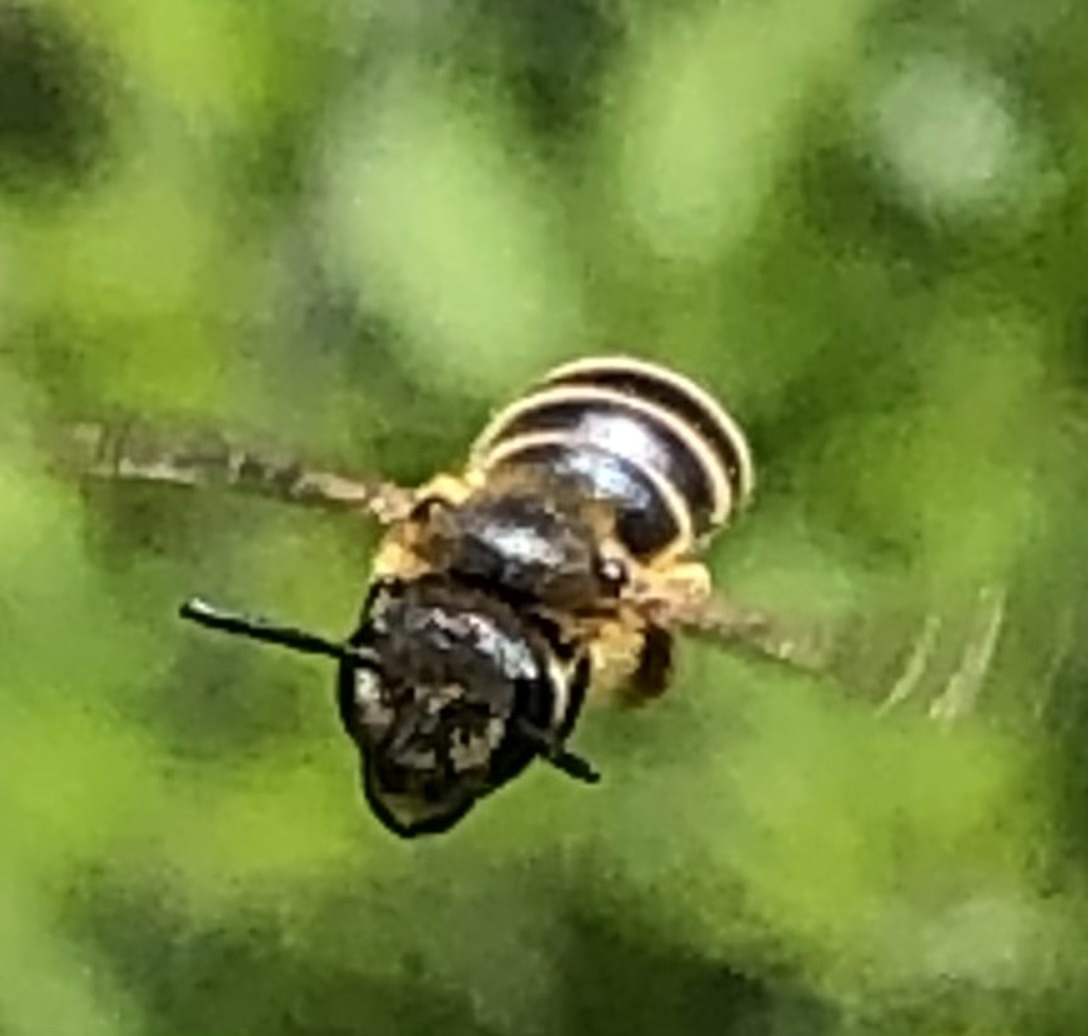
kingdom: Animalia
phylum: Arthropoda
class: Insecta
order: Hymenoptera
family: Halictidae
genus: Halictus
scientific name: Halictus rubicundus
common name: Orange-legged furrow bee
